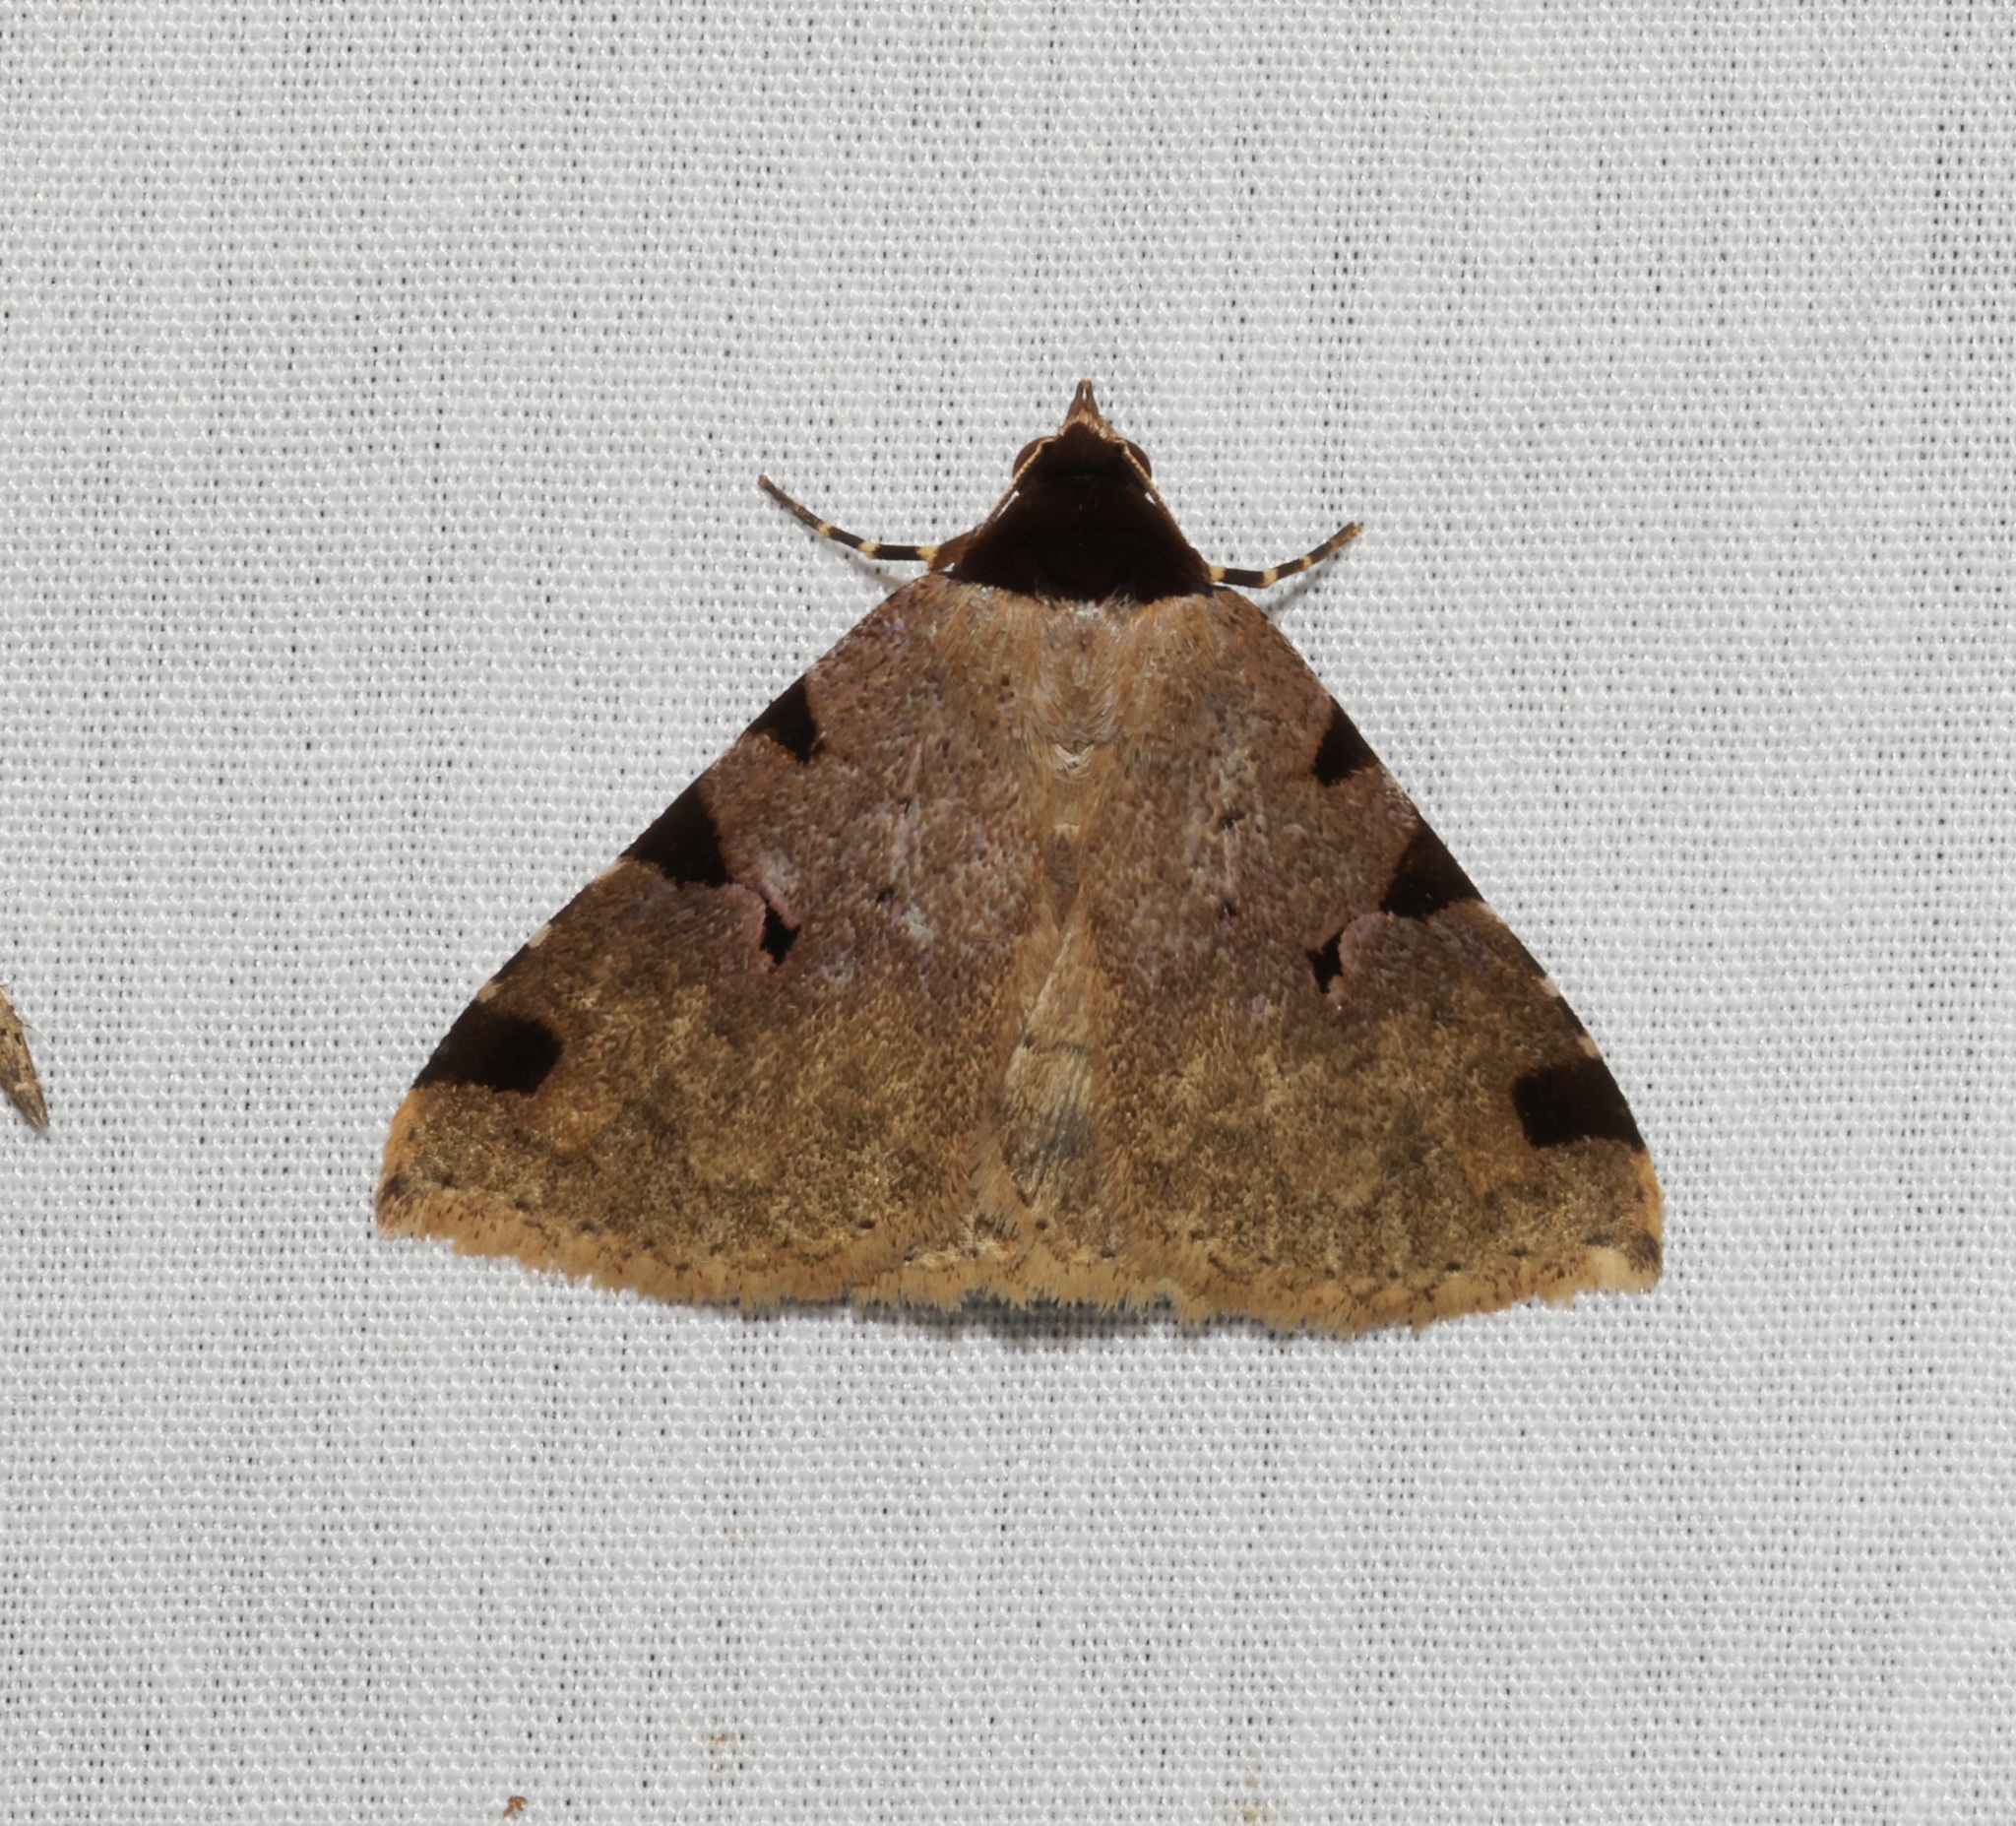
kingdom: Animalia
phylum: Arthropoda
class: Insecta
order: Lepidoptera
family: Erebidae
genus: Rema
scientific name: Rema costimacula
